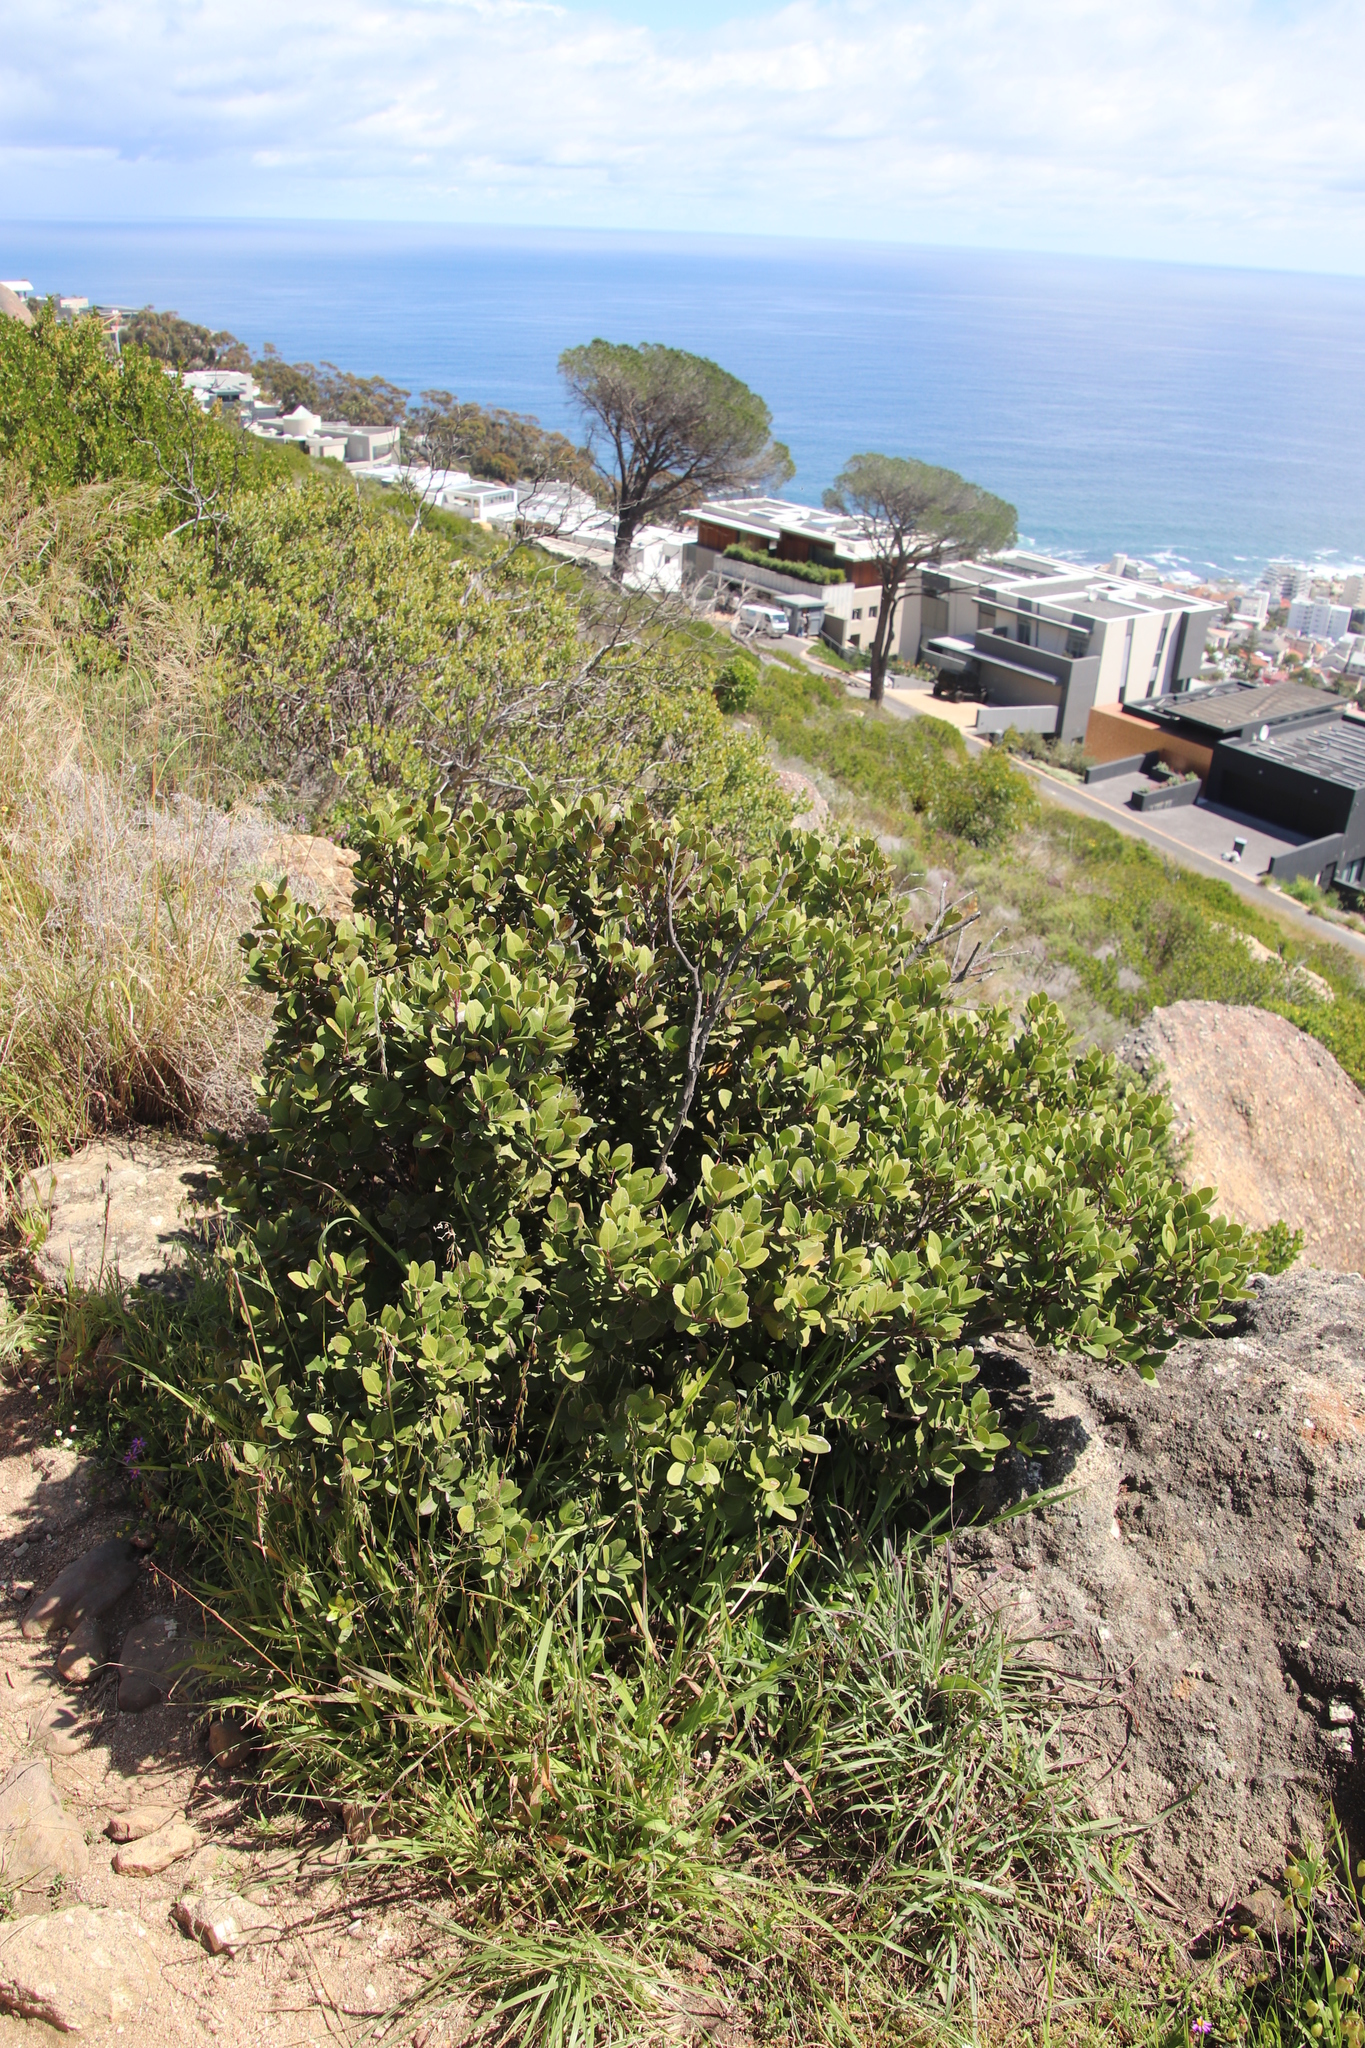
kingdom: Plantae
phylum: Tracheophyta
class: Magnoliopsida
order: Ericales
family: Ebenaceae
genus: Euclea
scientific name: Euclea racemosa
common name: Dune guarri
